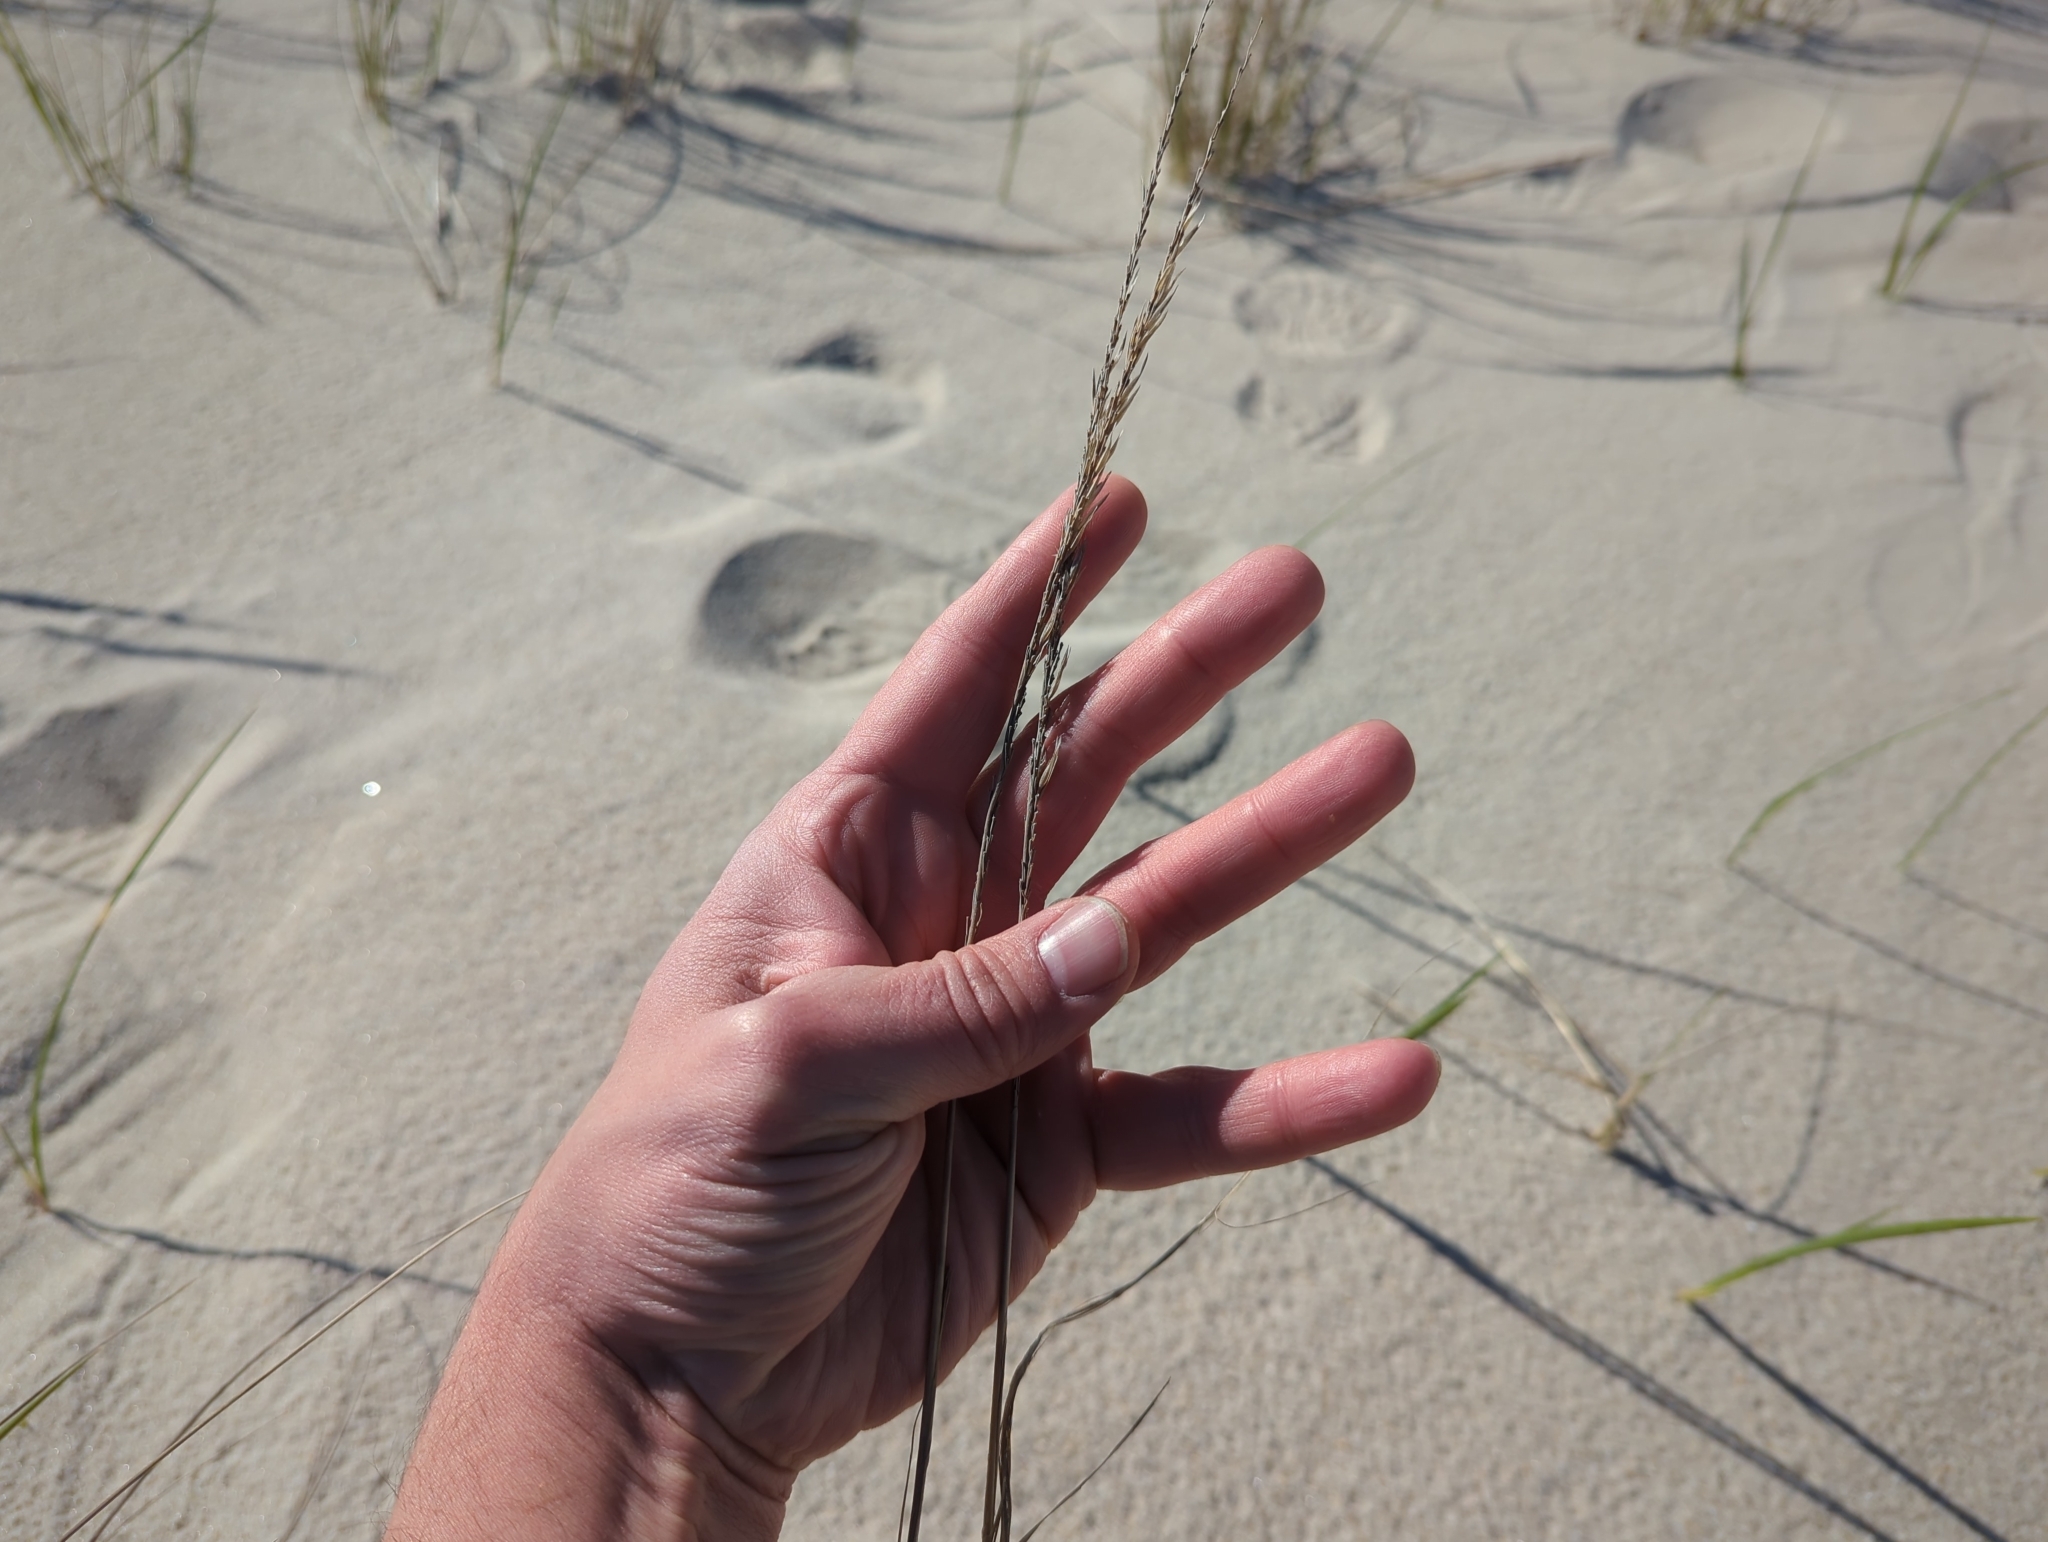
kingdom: Plantae
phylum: Tracheophyta
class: Liliopsida
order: Poales
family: Poaceae
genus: Panicum
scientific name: Panicum amarum
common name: Bitter panicum
